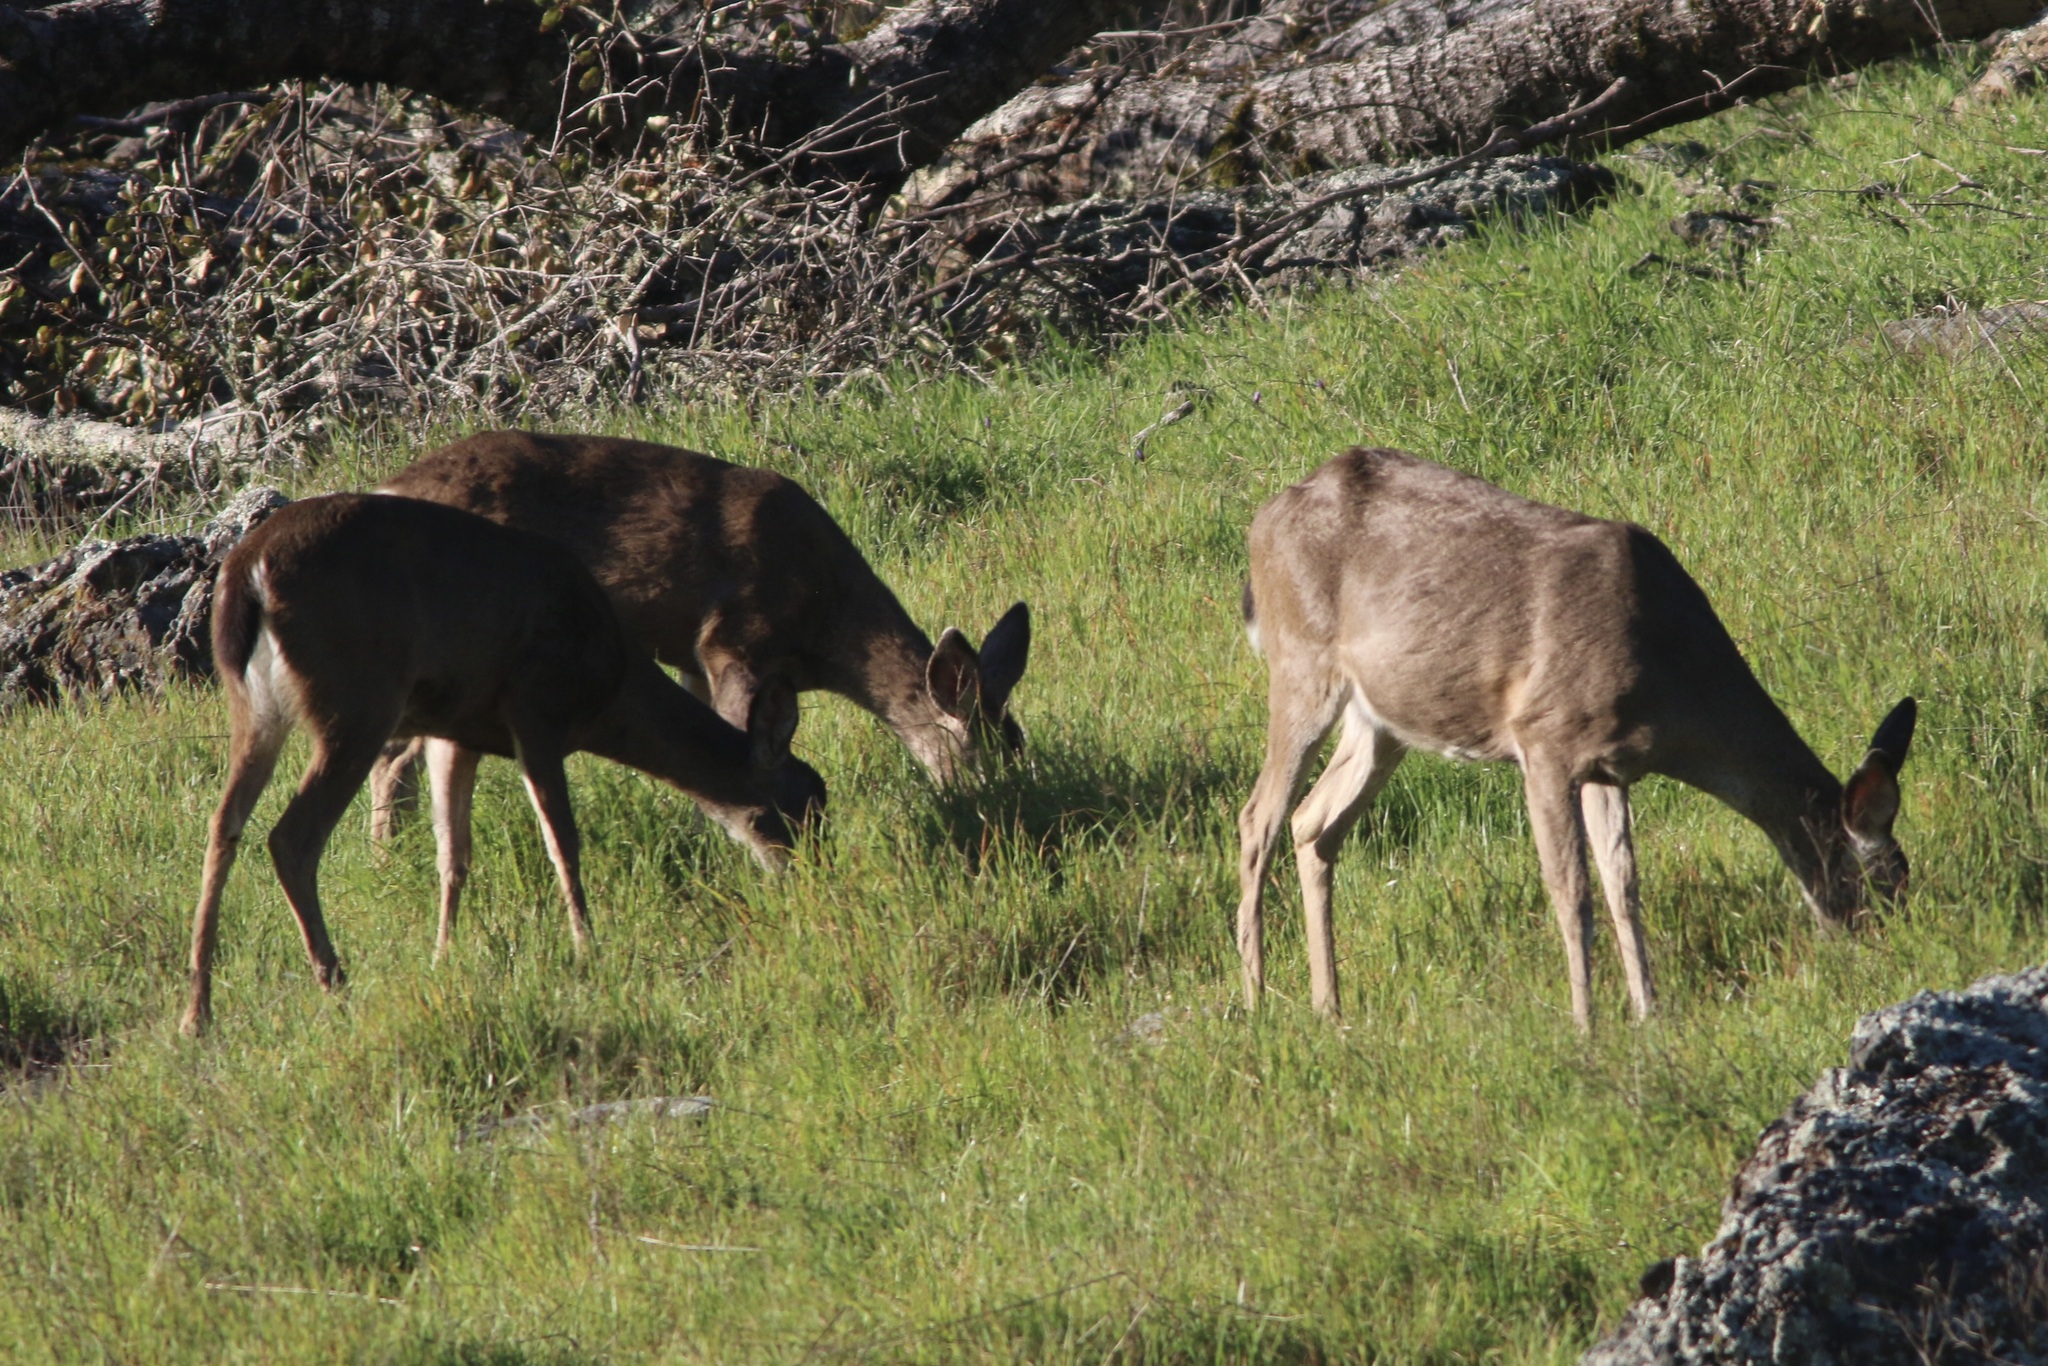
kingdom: Animalia
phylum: Chordata
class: Mammalia
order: Artiodactyla
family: Cervidae
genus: Odocoileus
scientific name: Odocoileus hemionus
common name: Mule deer
